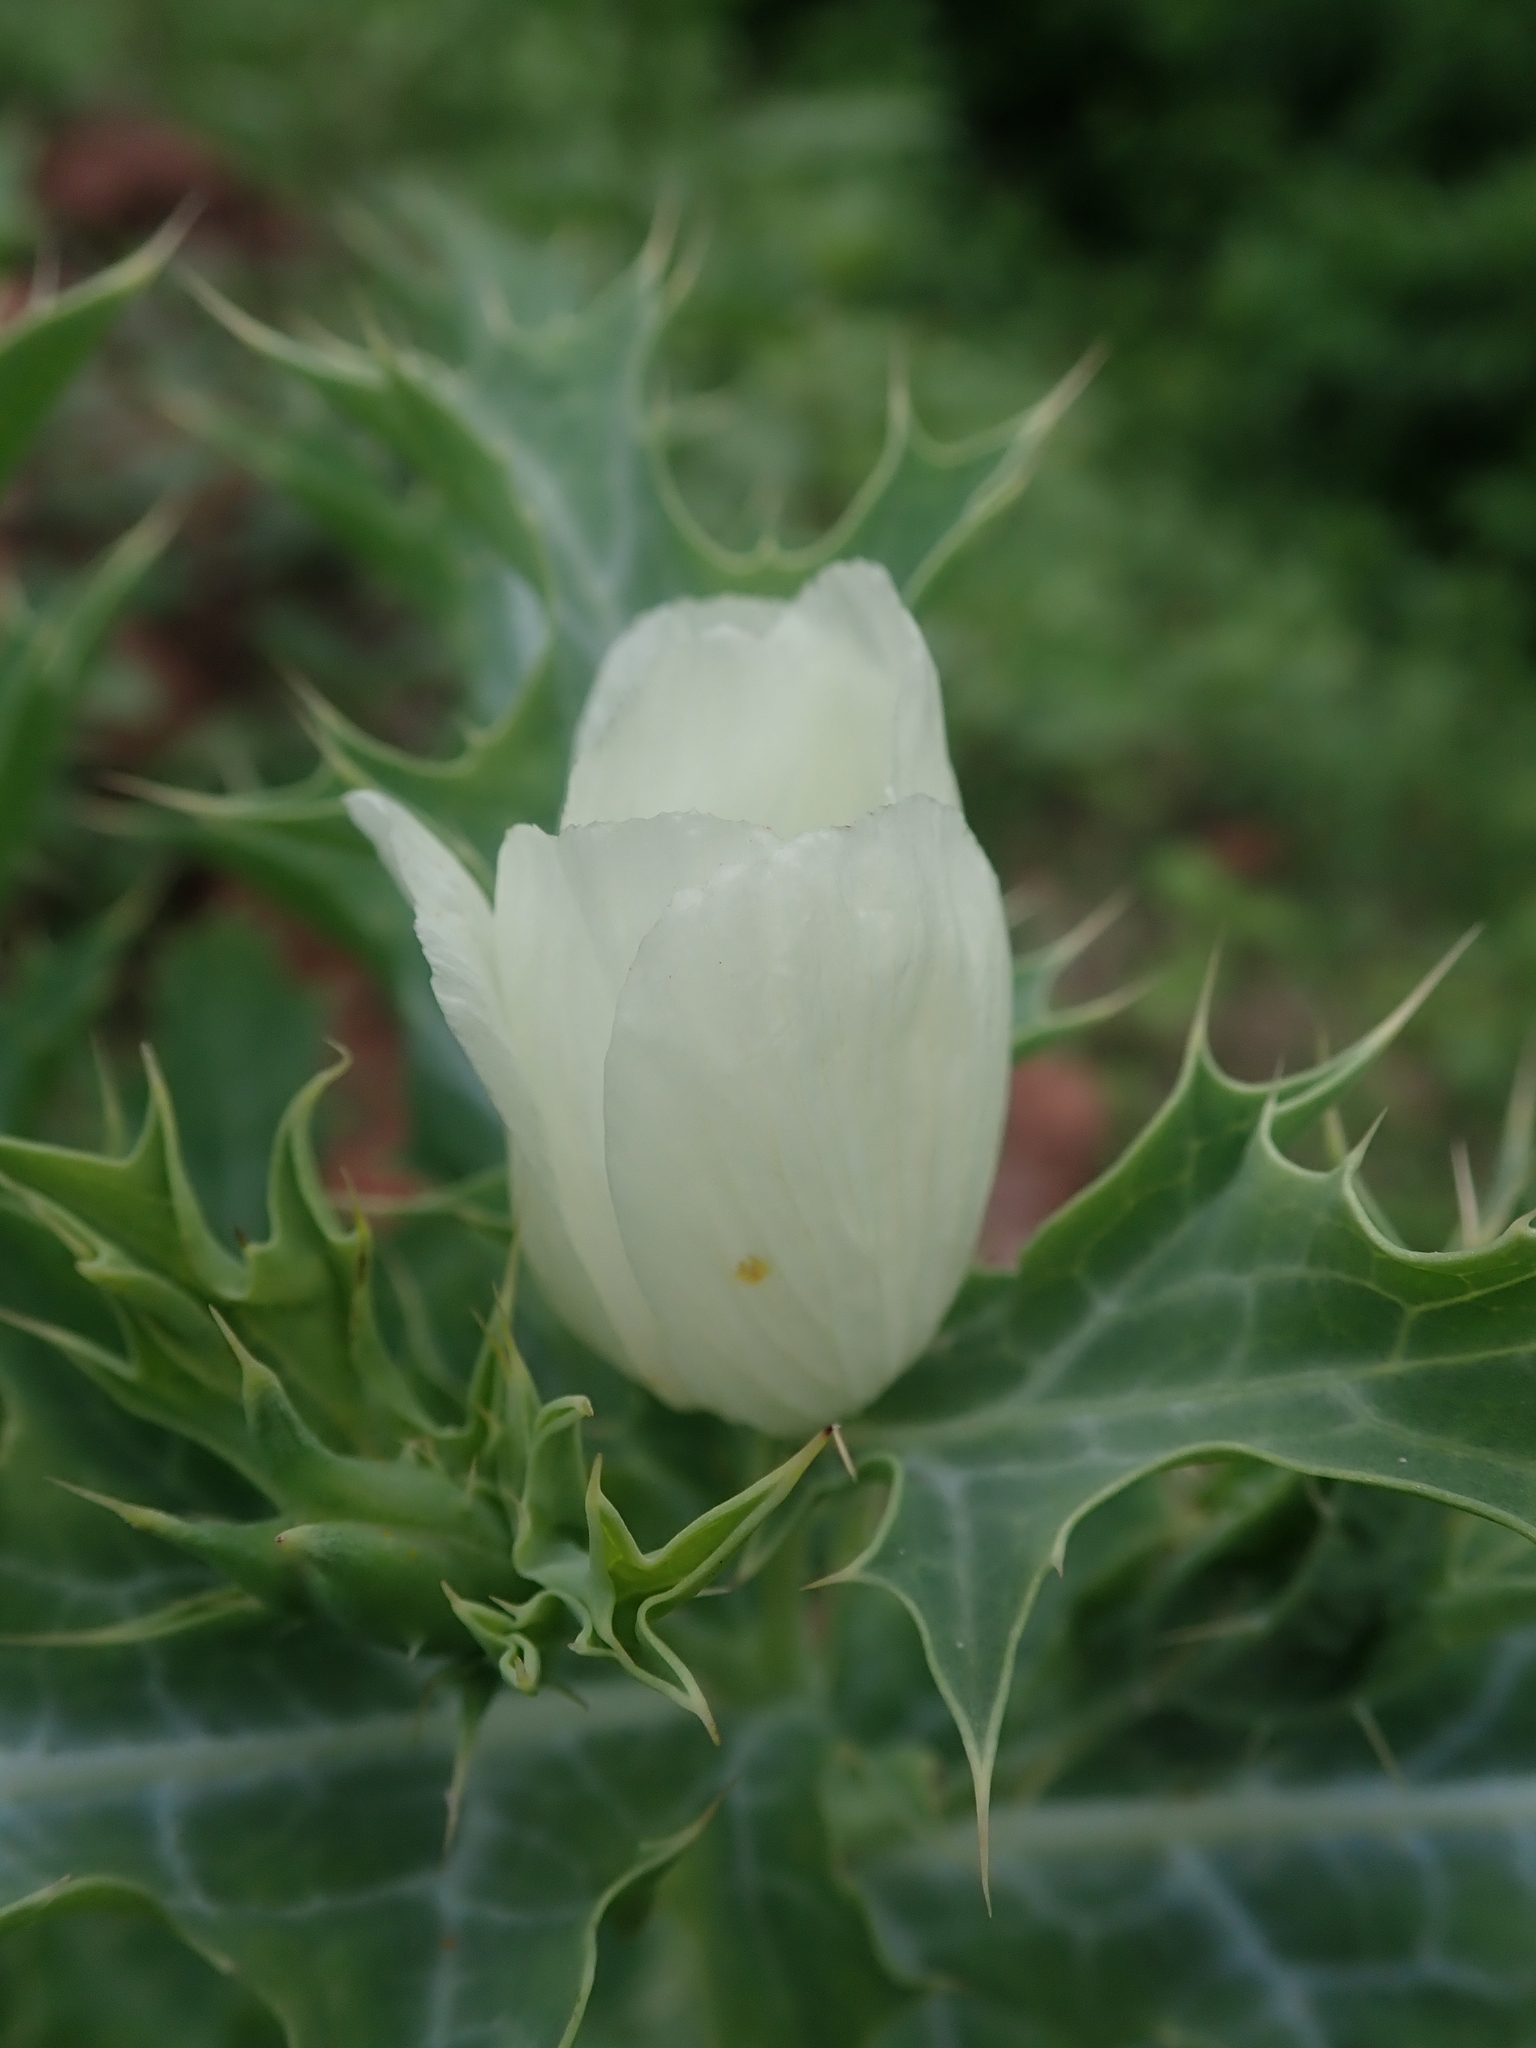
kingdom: Plantae
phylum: Tracheophyta
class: Magnoliopsida
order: Ranunculales
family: Papaveraceae
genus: Argemone
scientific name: Argemone subfusiformis
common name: American-poppy
